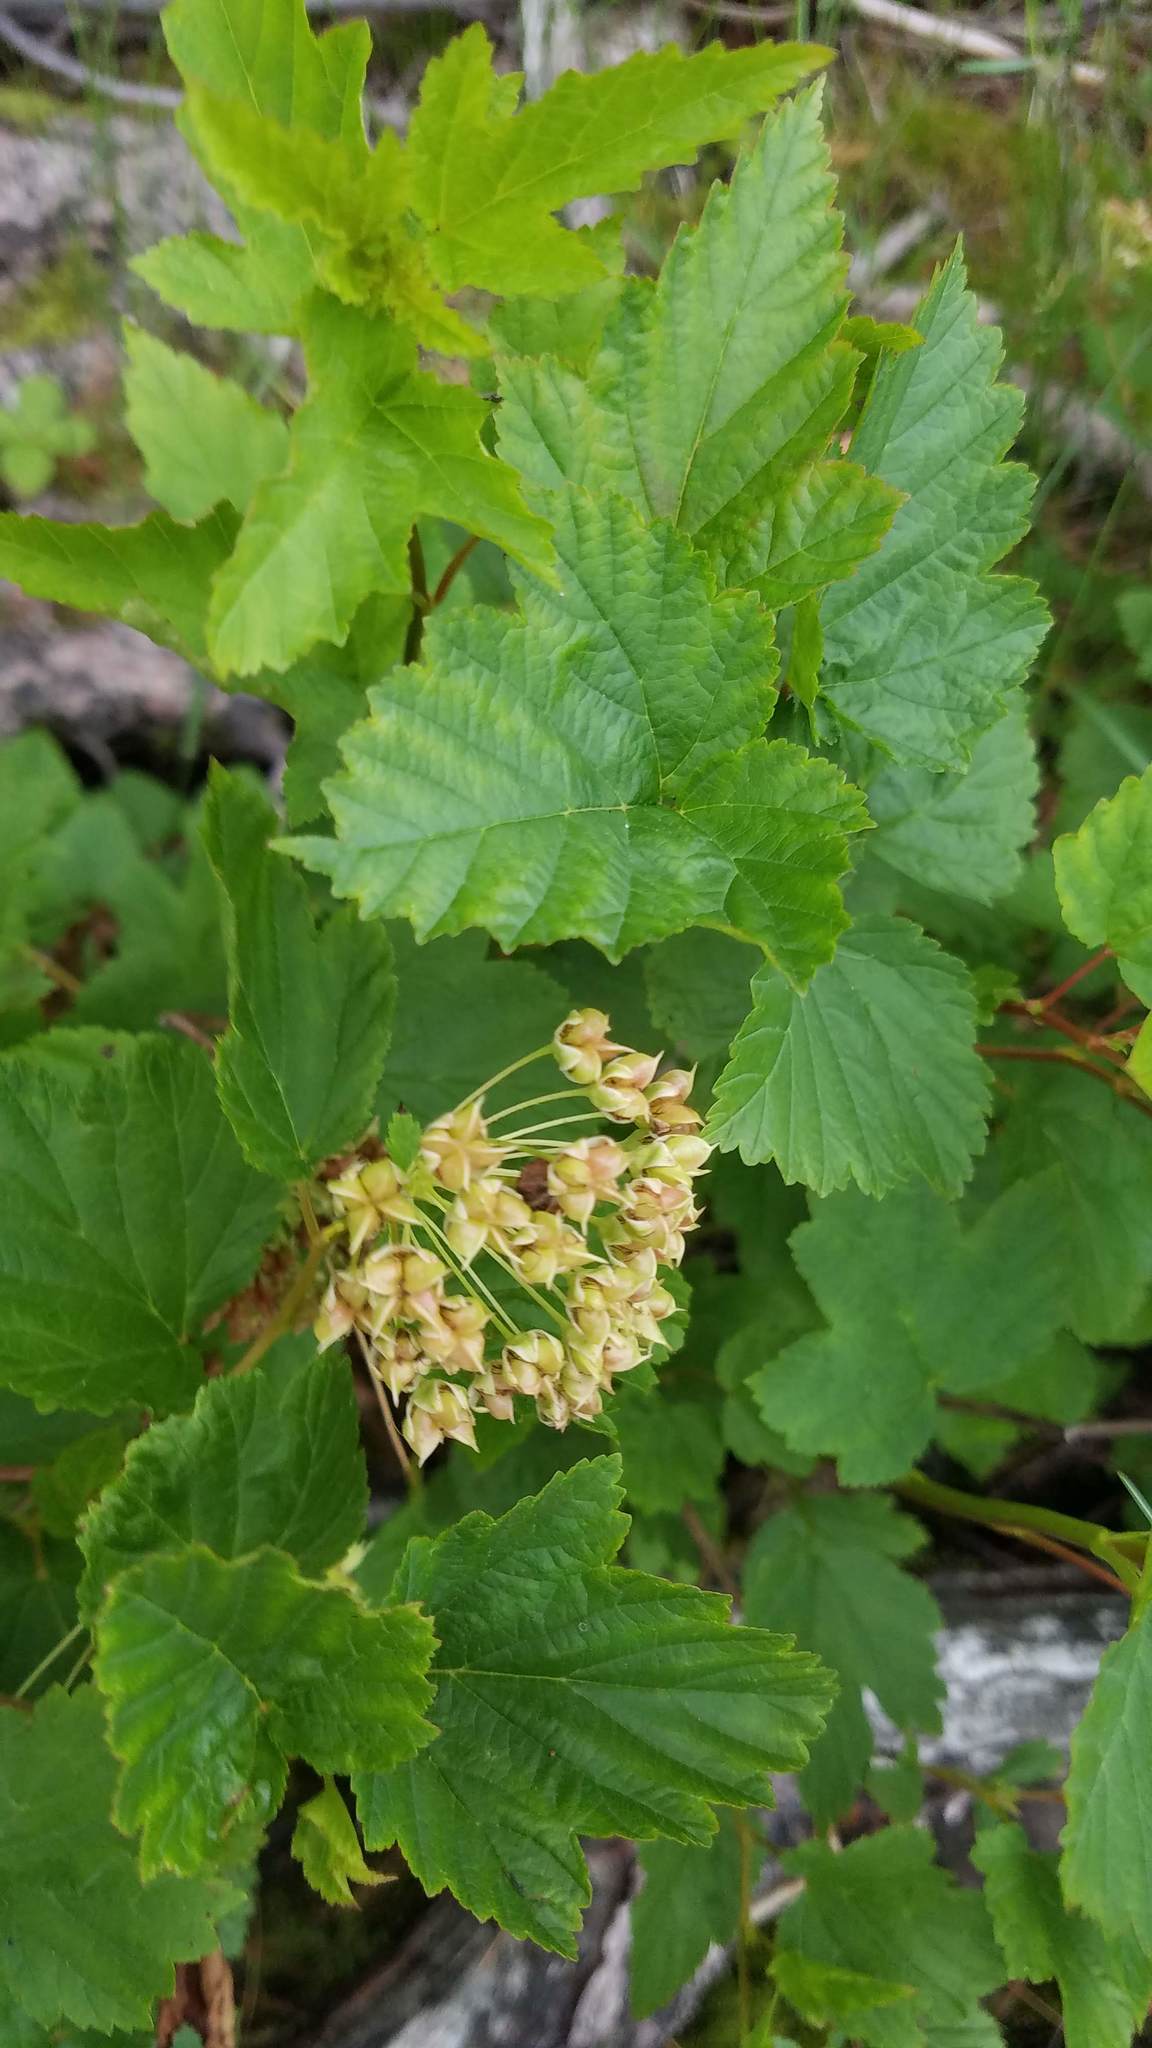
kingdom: Plantae
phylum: Tracheophyta
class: Magnoliopsida
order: Rosales
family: Rosaceae
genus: Physocarpus
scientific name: Physocarpus opulifolius
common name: Ninebark
